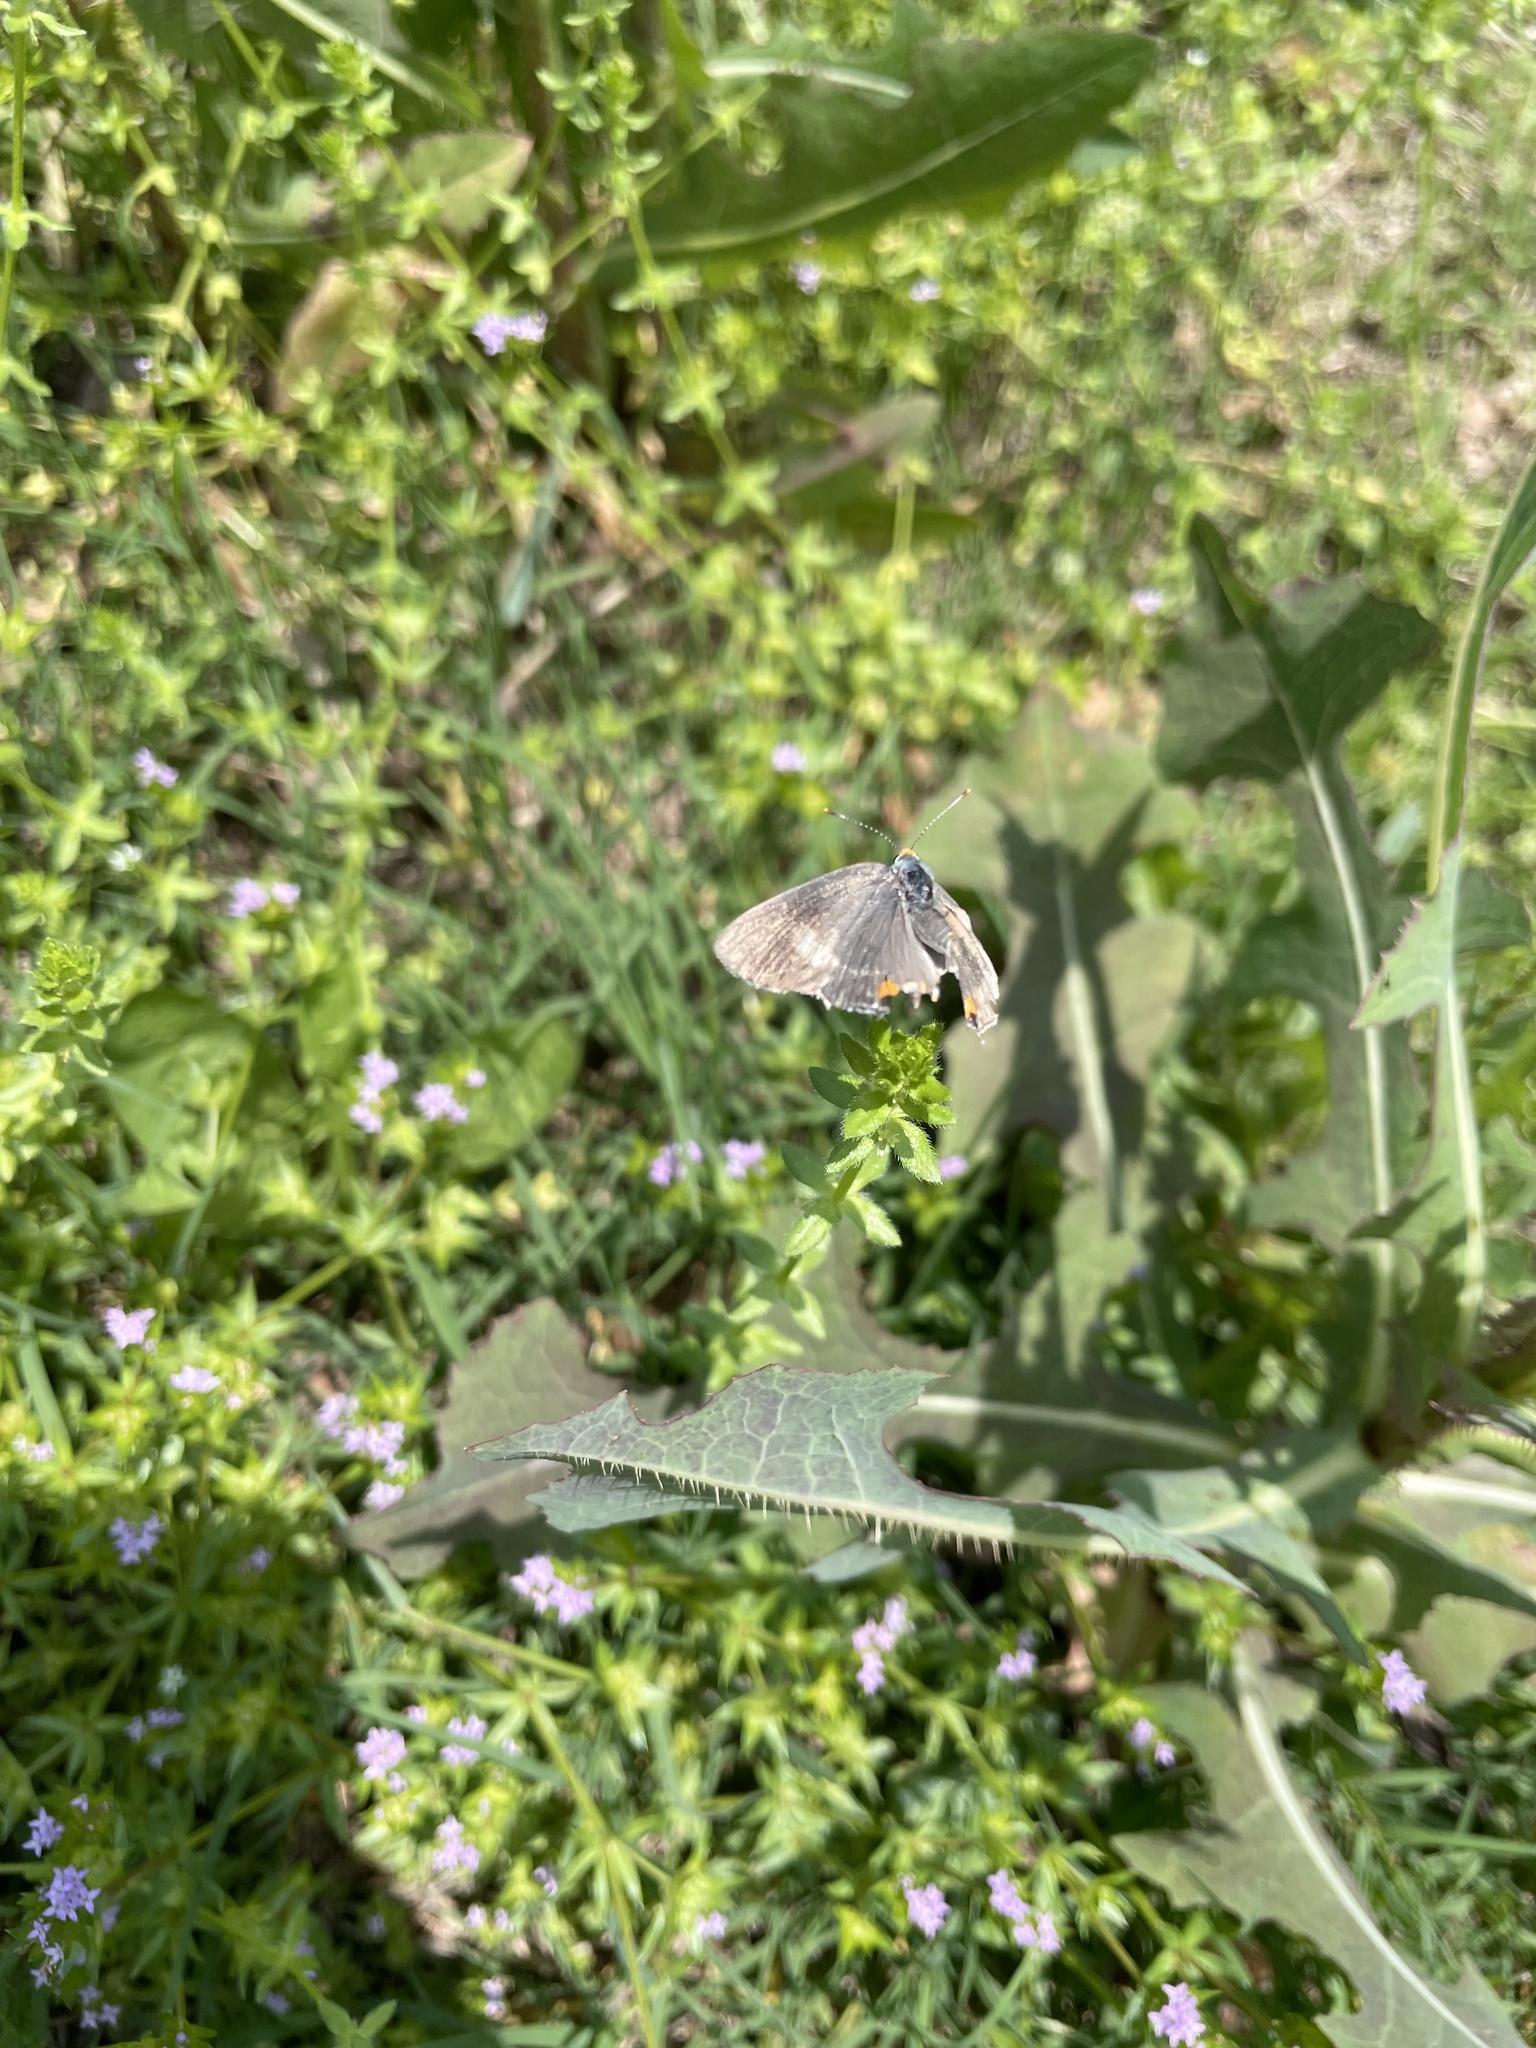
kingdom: Animalia
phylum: Arthropoda
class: Insecta
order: Lepidoptera
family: Lycaenidae
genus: Strymon
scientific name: Strymon melinus
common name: Gray hairstreak
